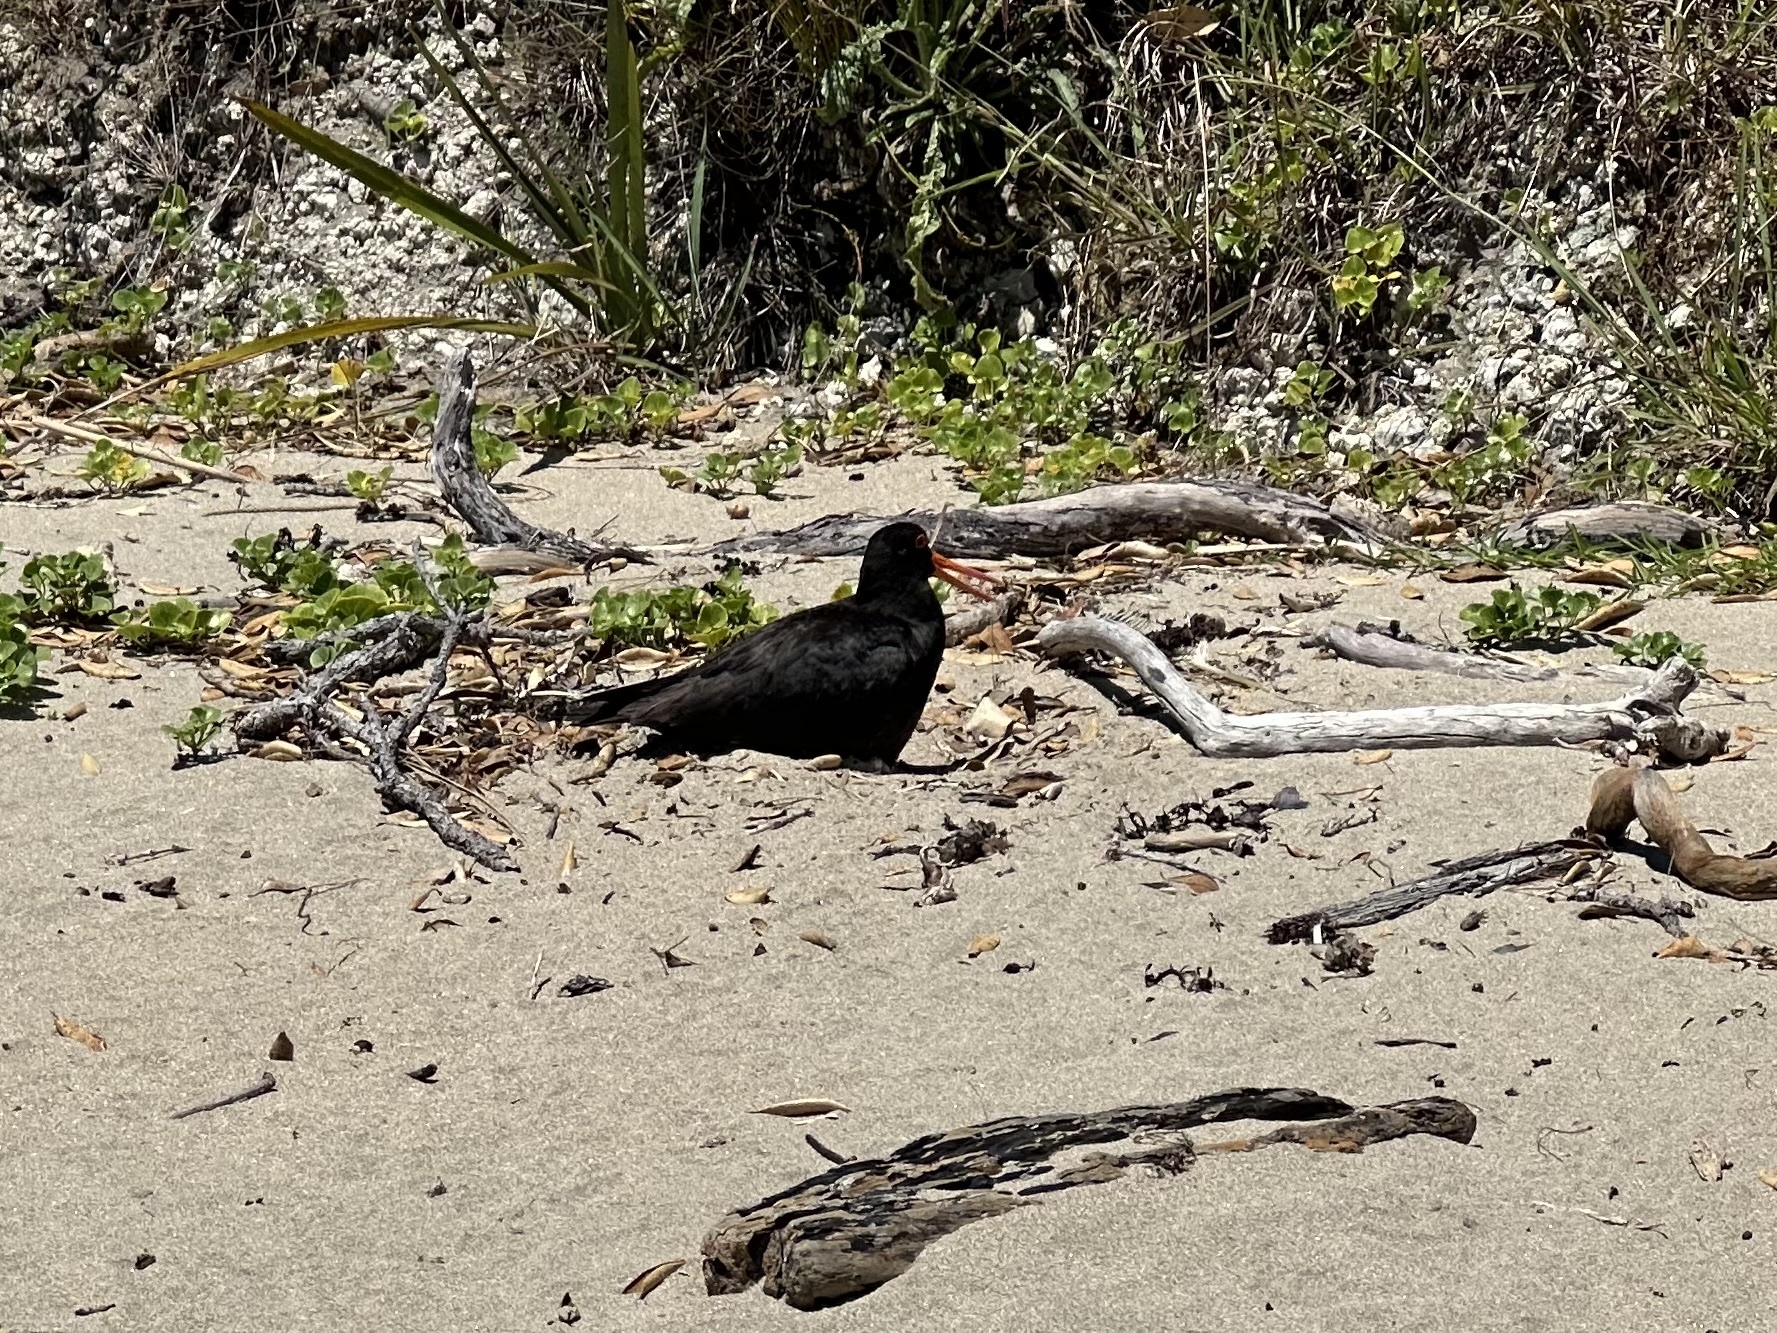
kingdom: Animalia
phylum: Chordata
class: Aves
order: Charadriiformes
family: Haematopodidae
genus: Haematopus
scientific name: Haematopus unicolor
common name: Variable oystercatcher
